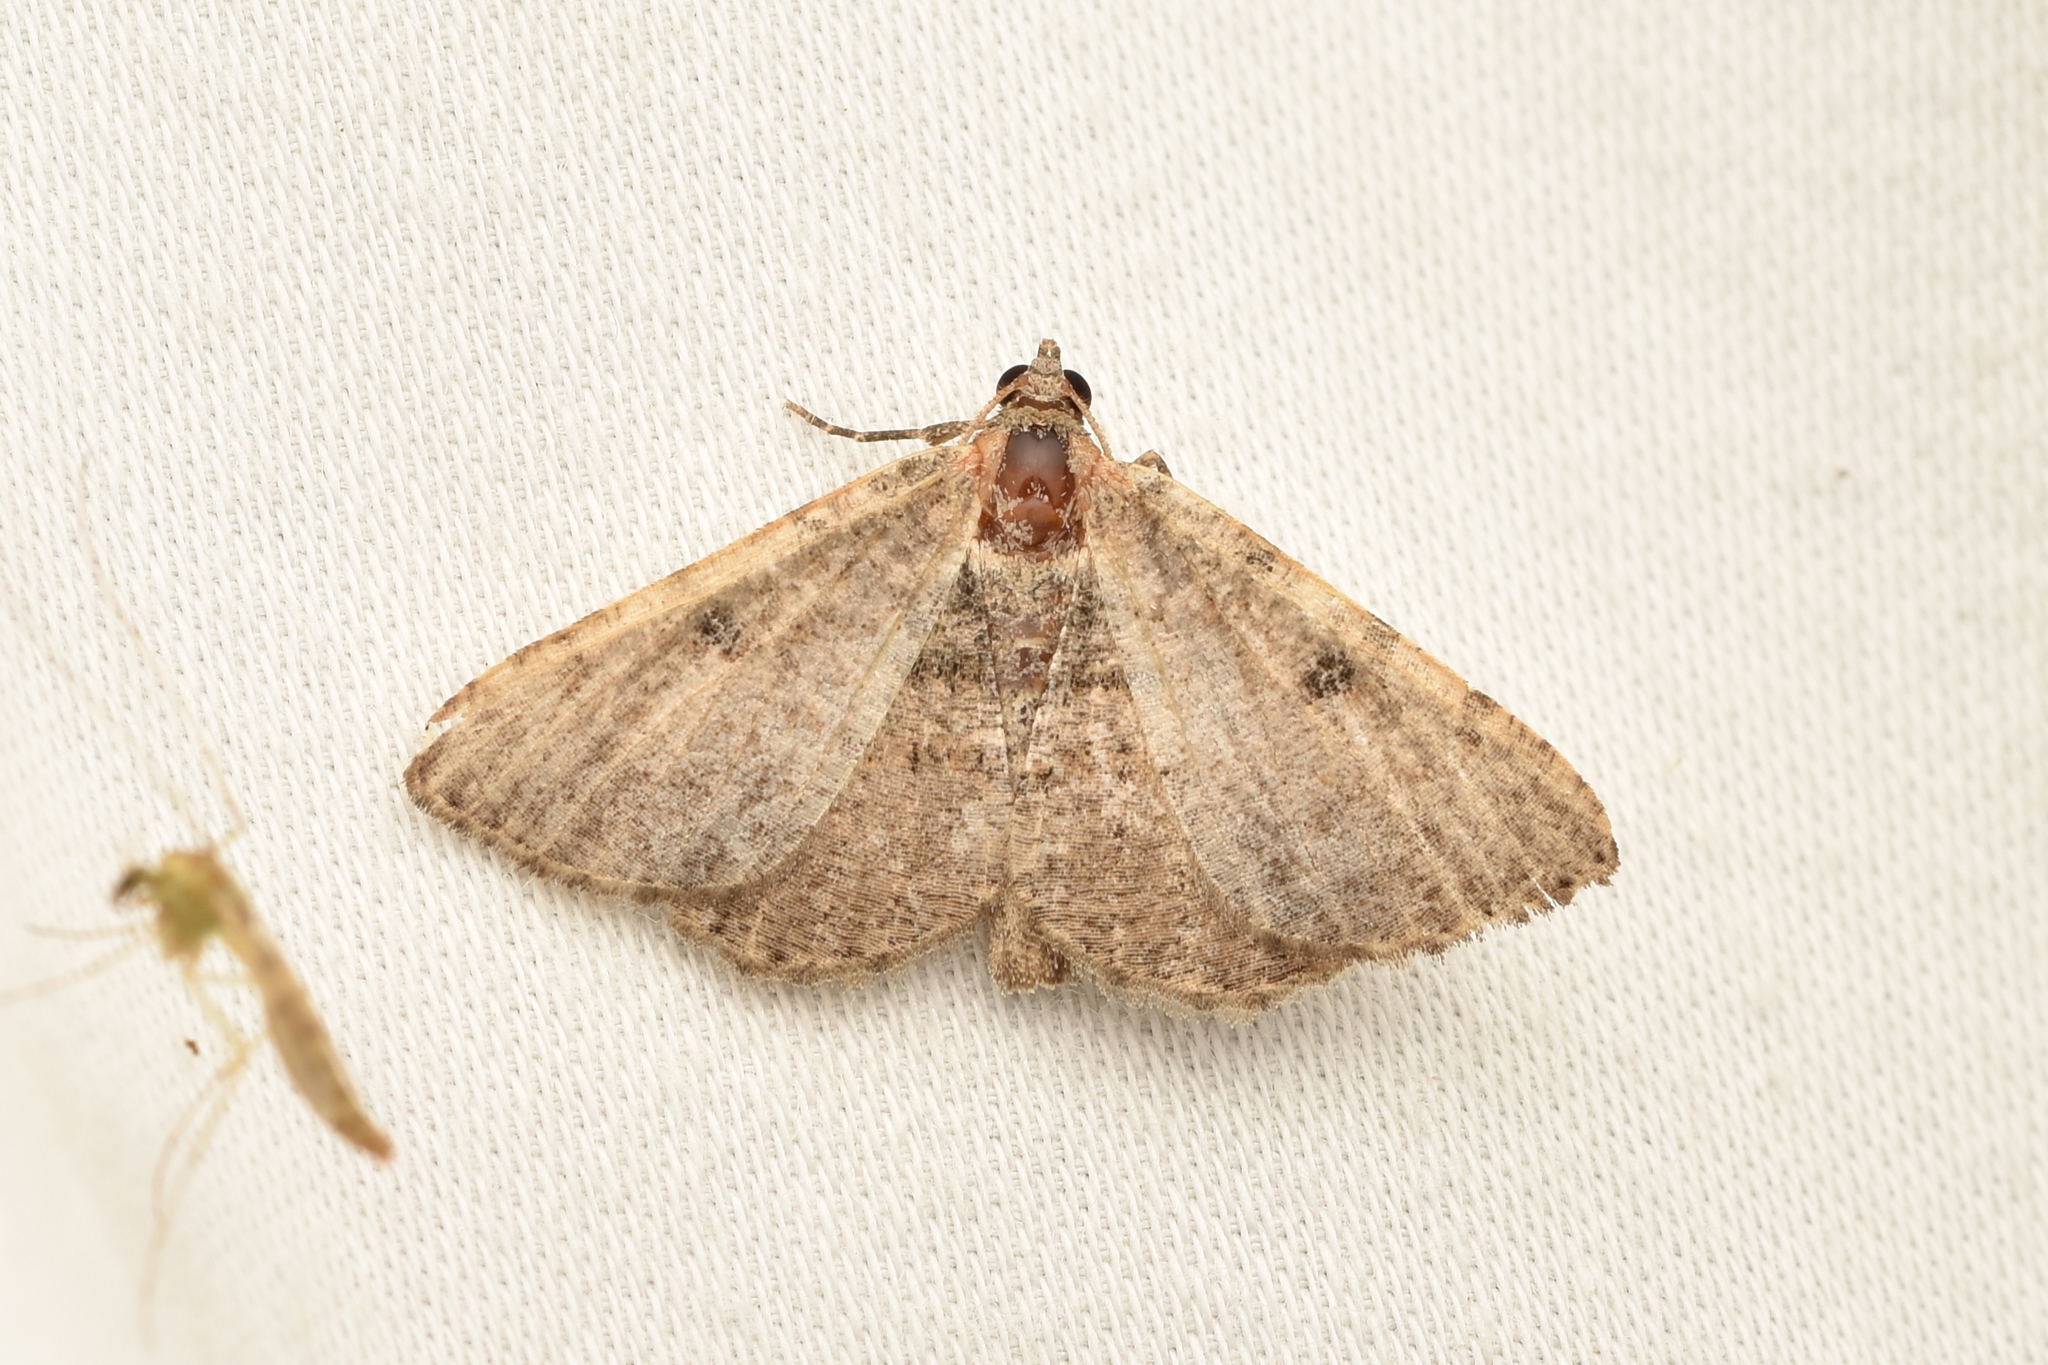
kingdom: Animalia
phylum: Arthropoda
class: Insecta
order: Lepidoptera
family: Geometridae
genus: Digrammia
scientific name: Digrammia gnophosaria
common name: Hollow-spotted angle
